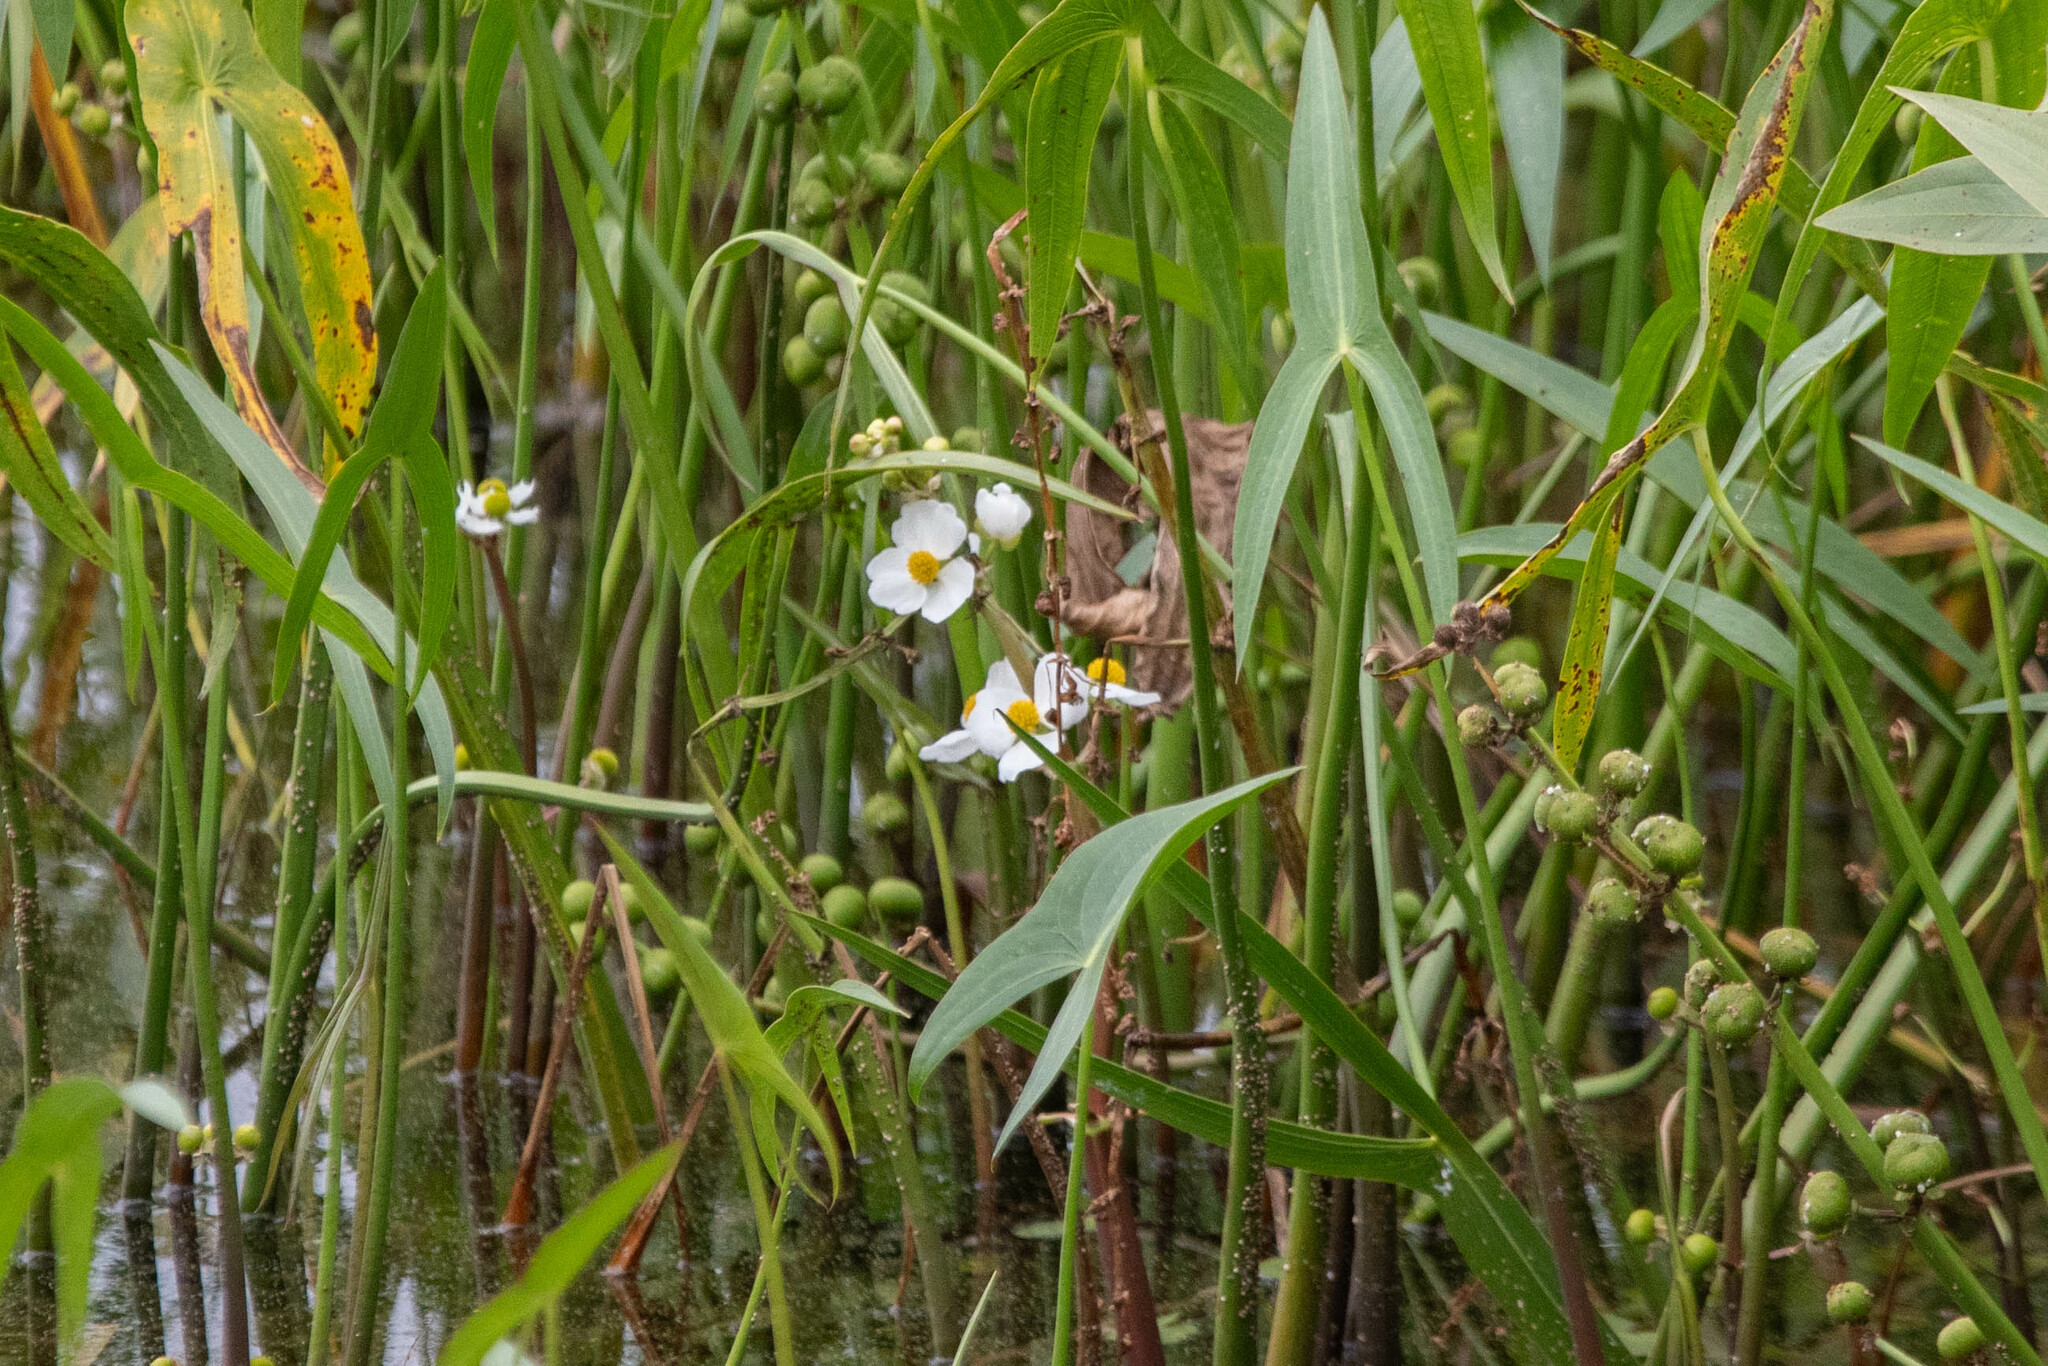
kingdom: Plantae
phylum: Tracheophyta
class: Liliopsida
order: Alismatales
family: Alismataceae
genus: Sagittaria
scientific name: Sagittaria latifolia
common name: Duck-potato
